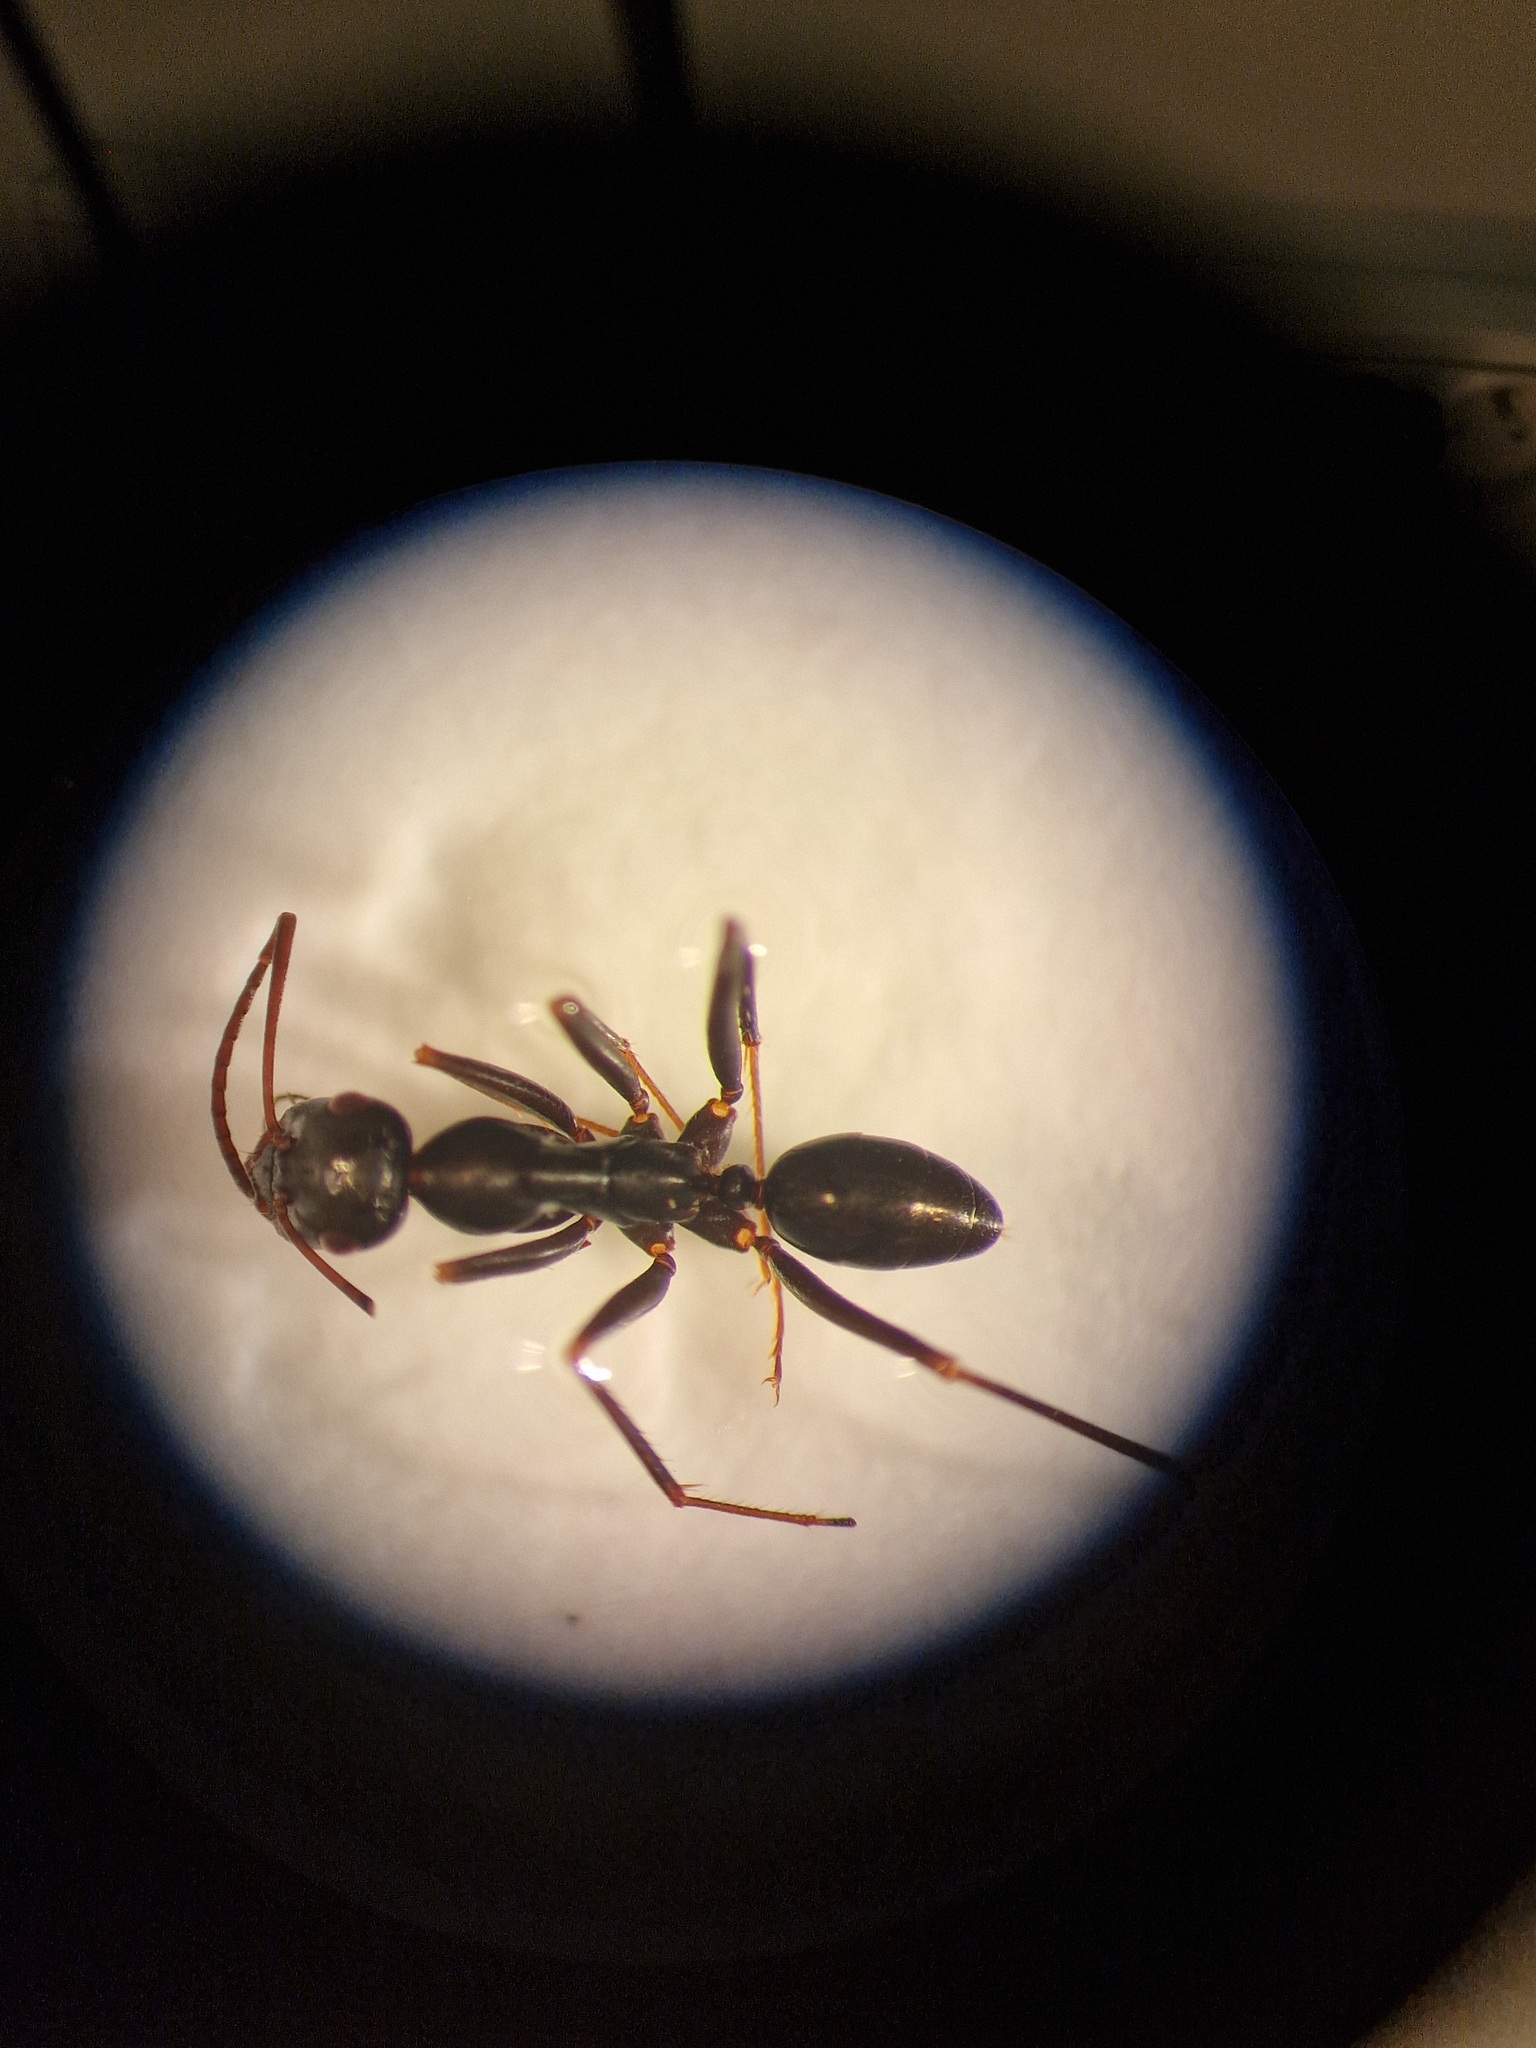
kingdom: Animalia
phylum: Arthropoda
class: Insecta
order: Hymenoptera
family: Formicidae
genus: Cataglyphis
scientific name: Cataglyphis piliscapus
